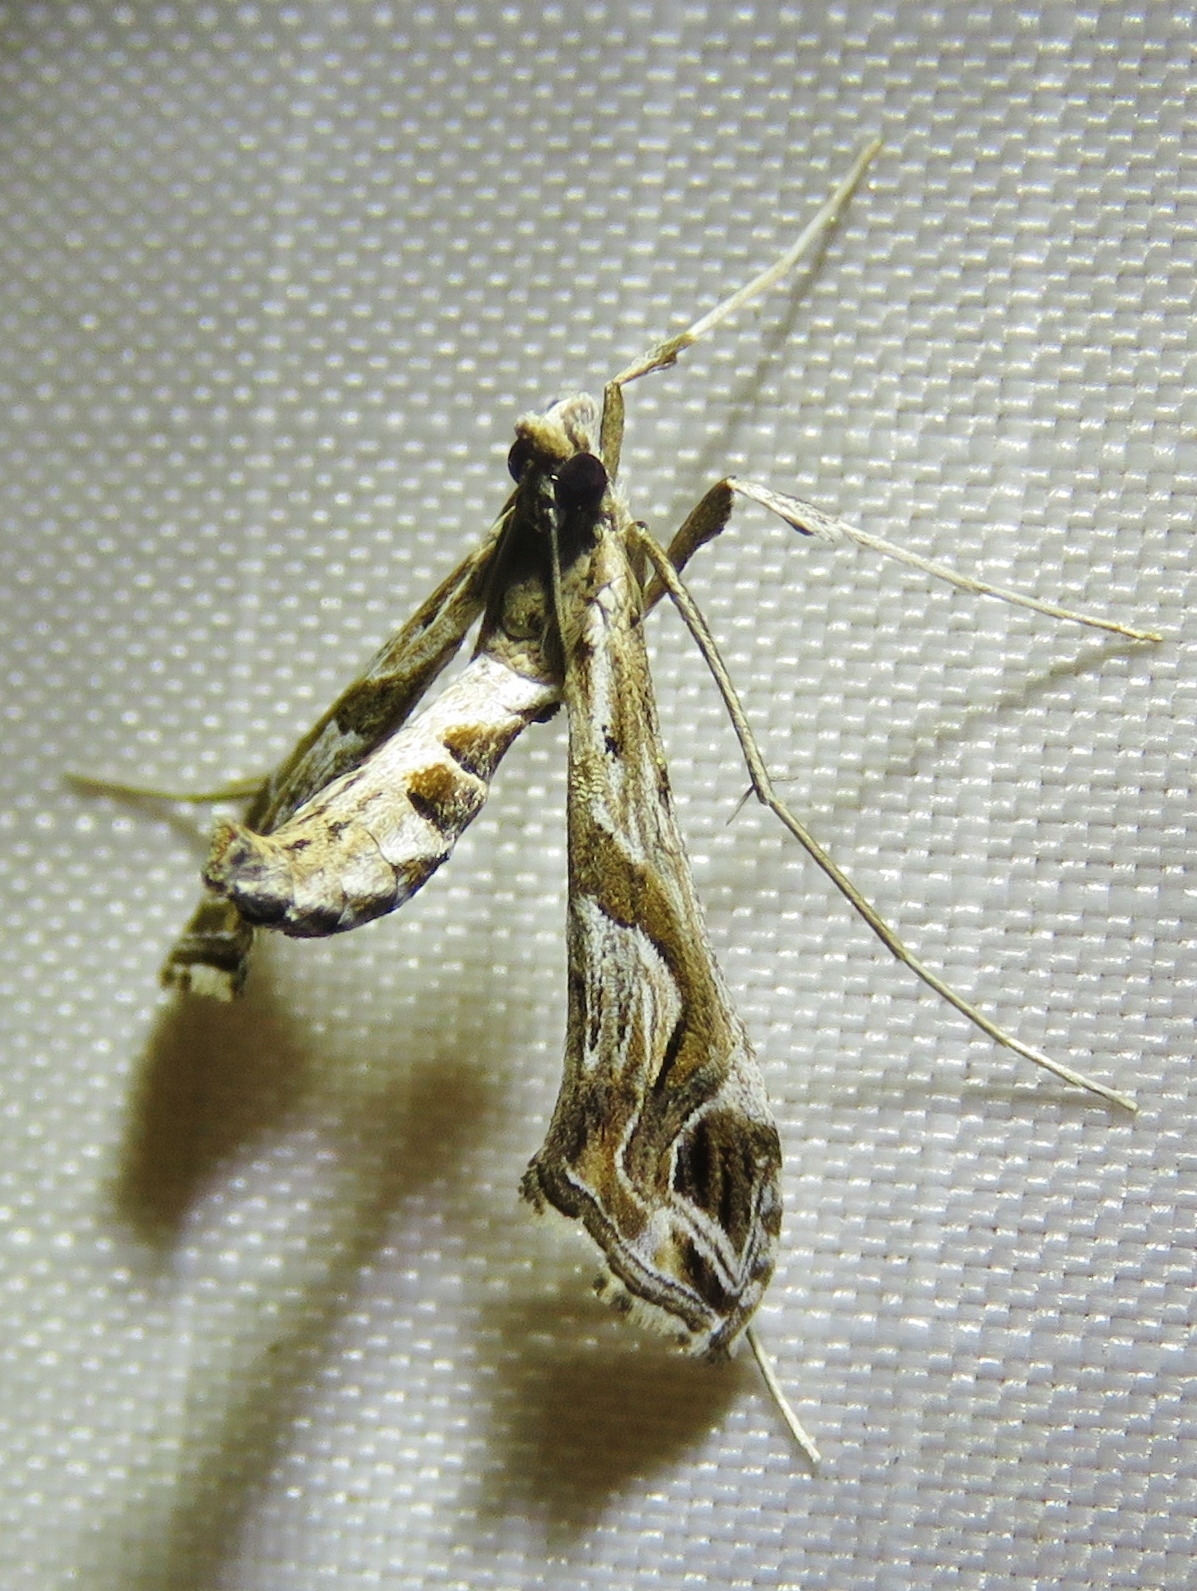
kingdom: Animalia
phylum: Arthropoda
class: Insecta
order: Lepidoptera
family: Crambidae
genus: Lineodes
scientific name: Lineodes integra
